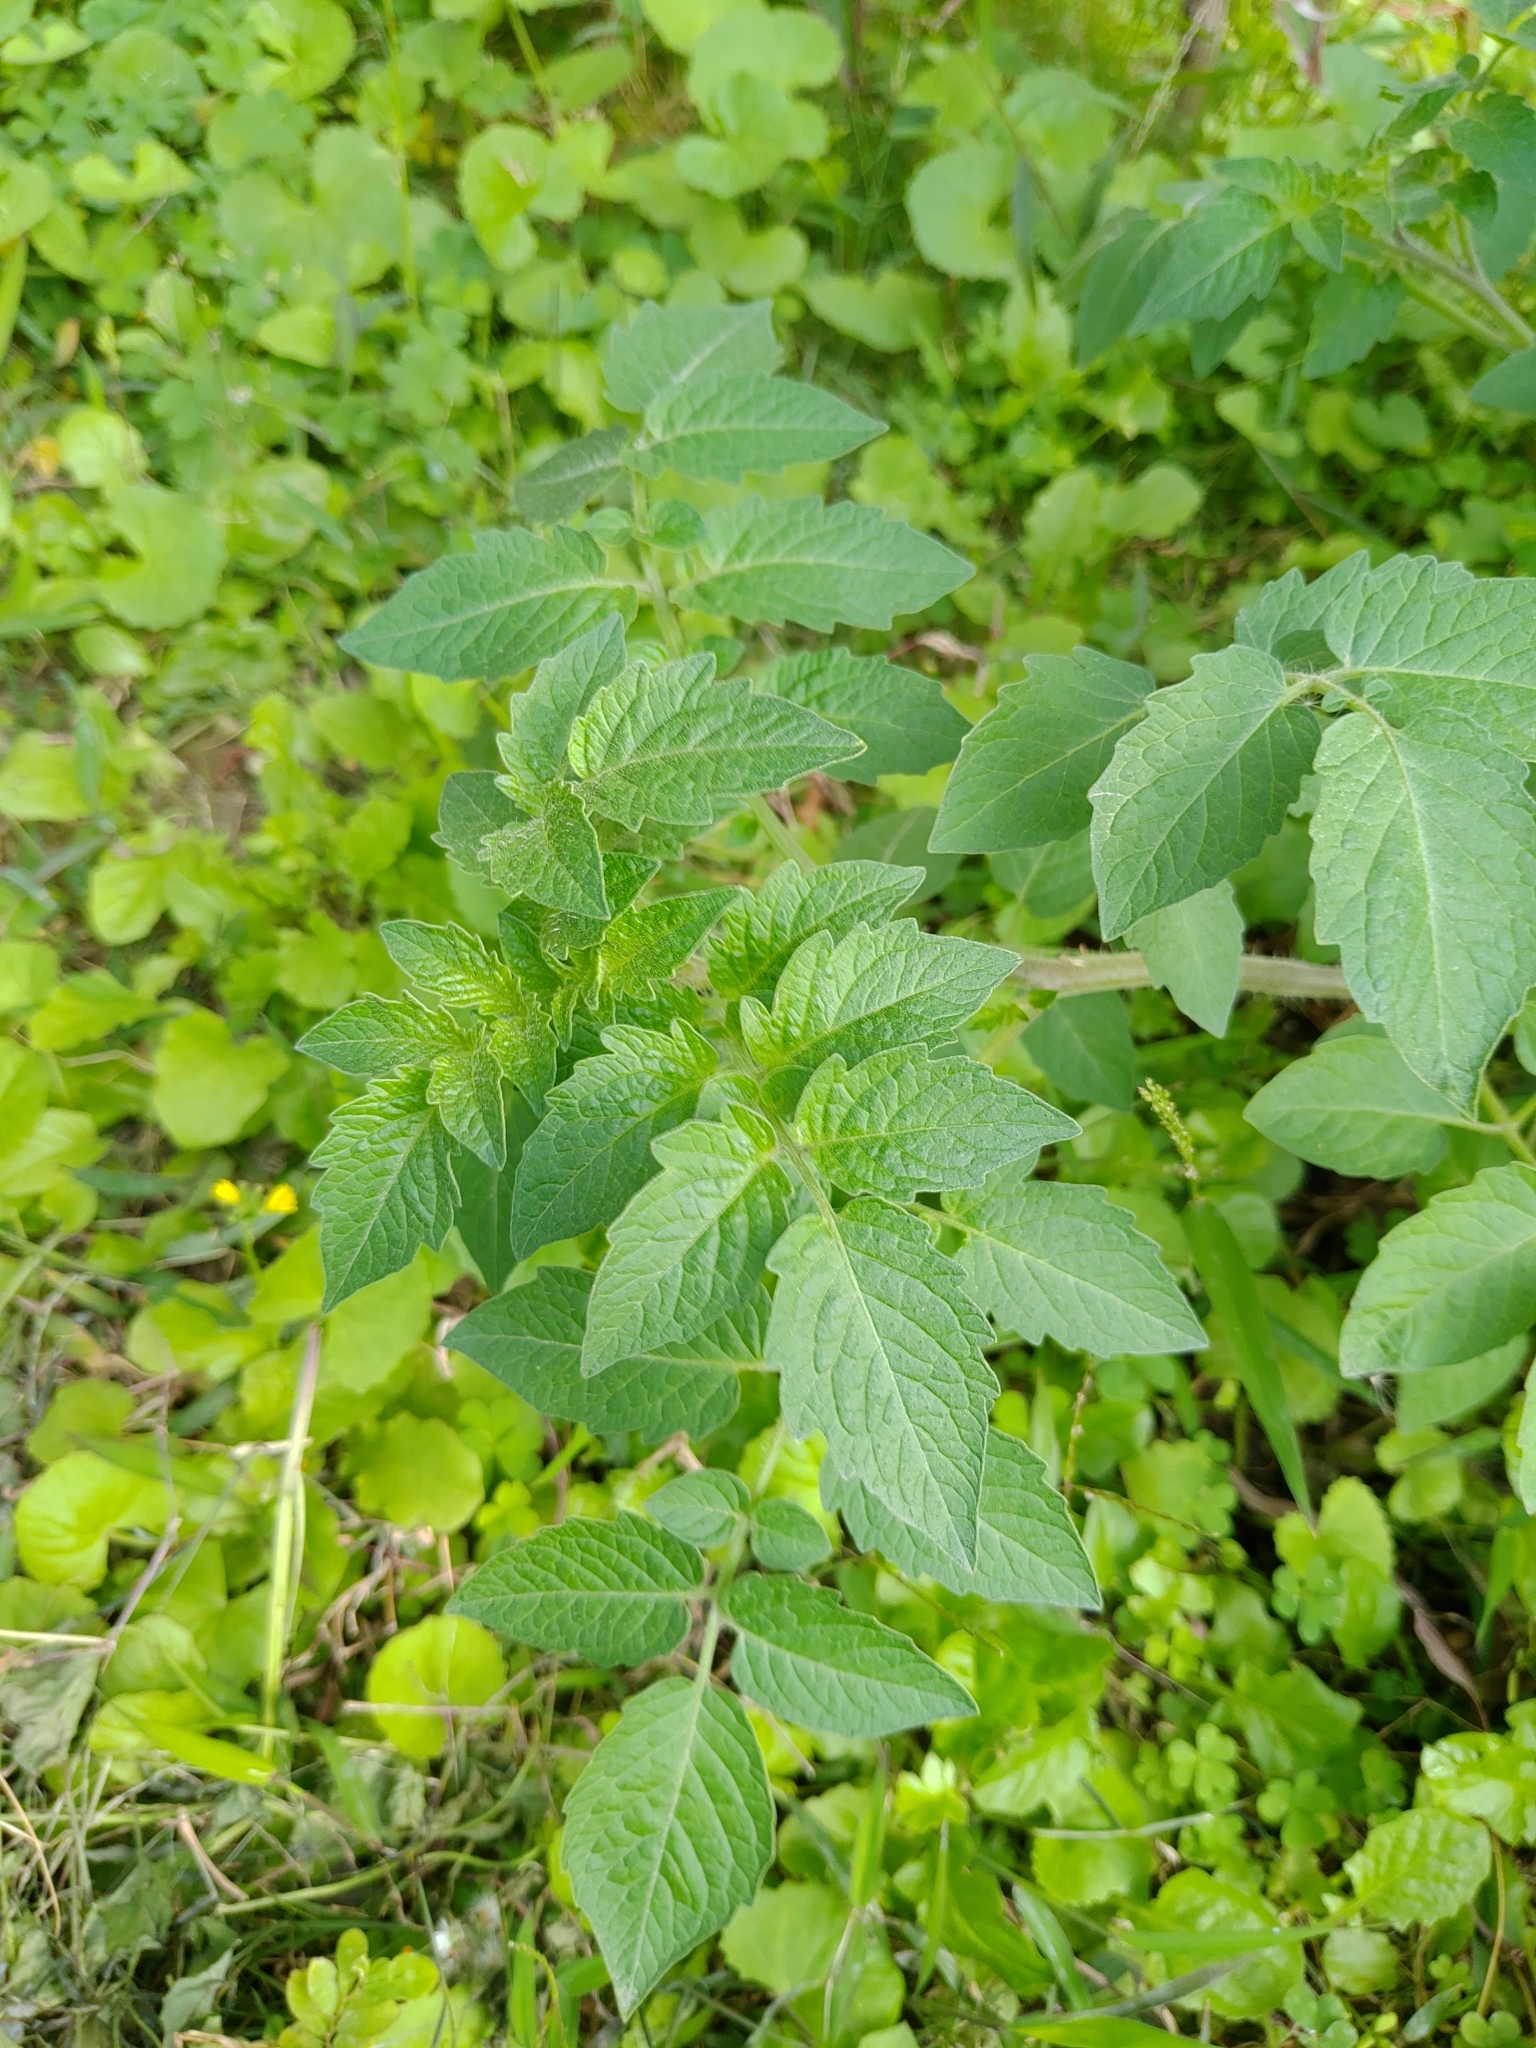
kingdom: Plantae
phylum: Tracheophyta
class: Magnoliopsida
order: Solanales
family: Solanaceae
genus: Solanum
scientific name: Solanum lycopersicum
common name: Garden tomato
